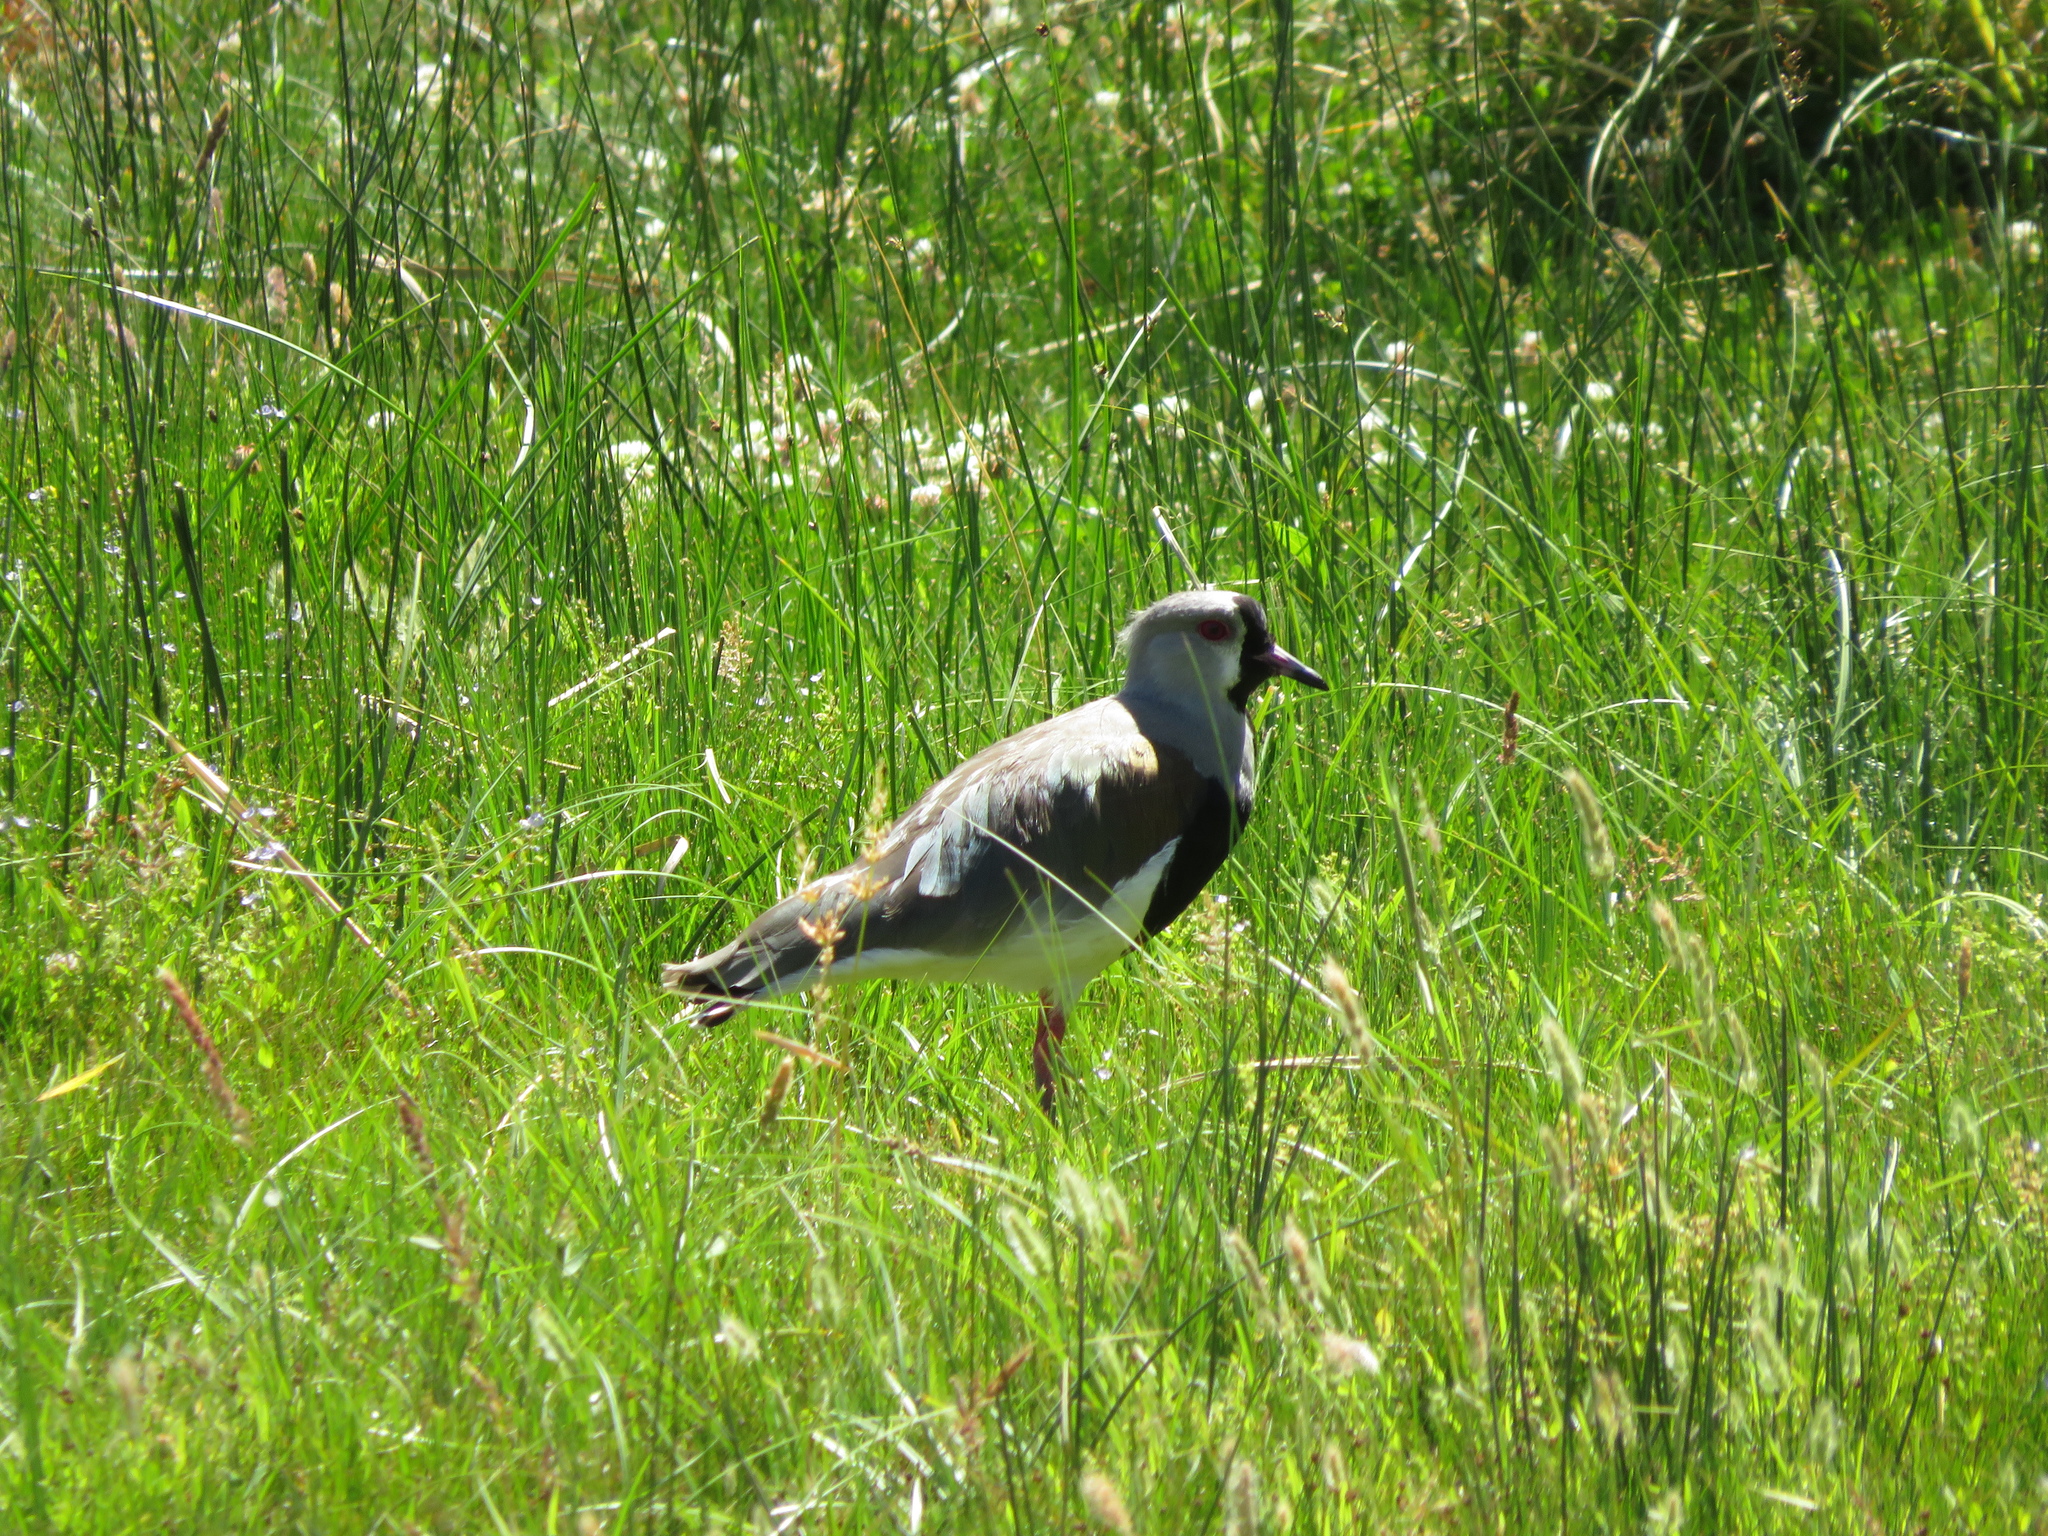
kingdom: Animalia
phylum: Chordata
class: Aves
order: Charadriiformes
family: Charadriidae
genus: Vanellus
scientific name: Vanellus chilensis
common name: Southern lapwing
